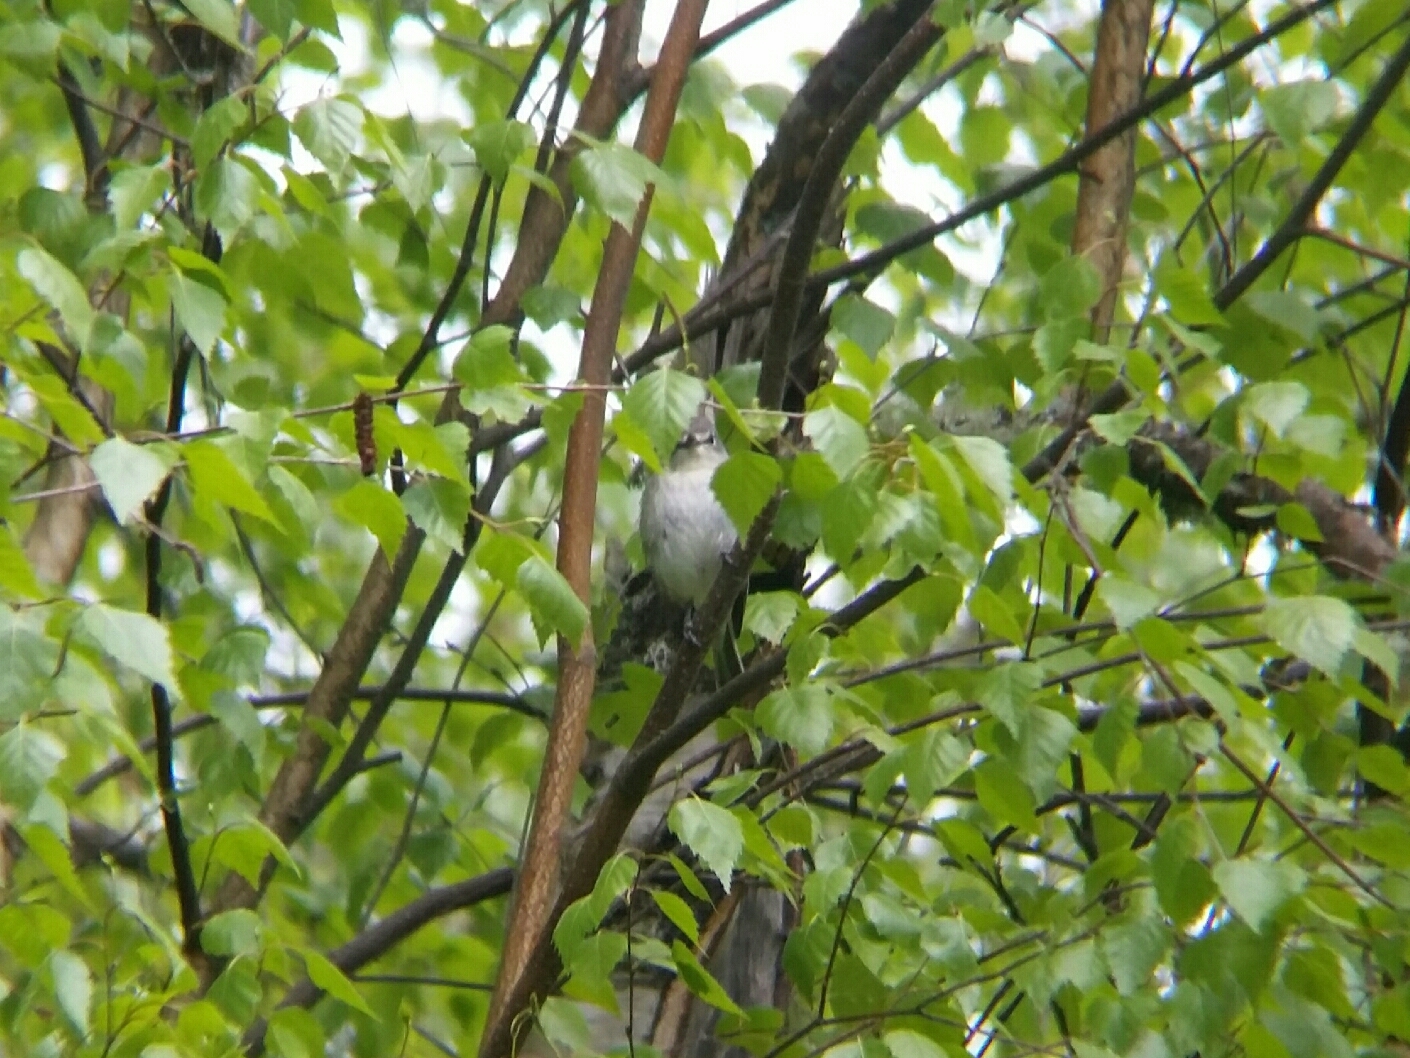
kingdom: Animalia
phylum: Chordata
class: Aves
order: Passeriformes
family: Vireonidae
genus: Vireo
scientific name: Vireo cassinii
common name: Cassin's vireo
